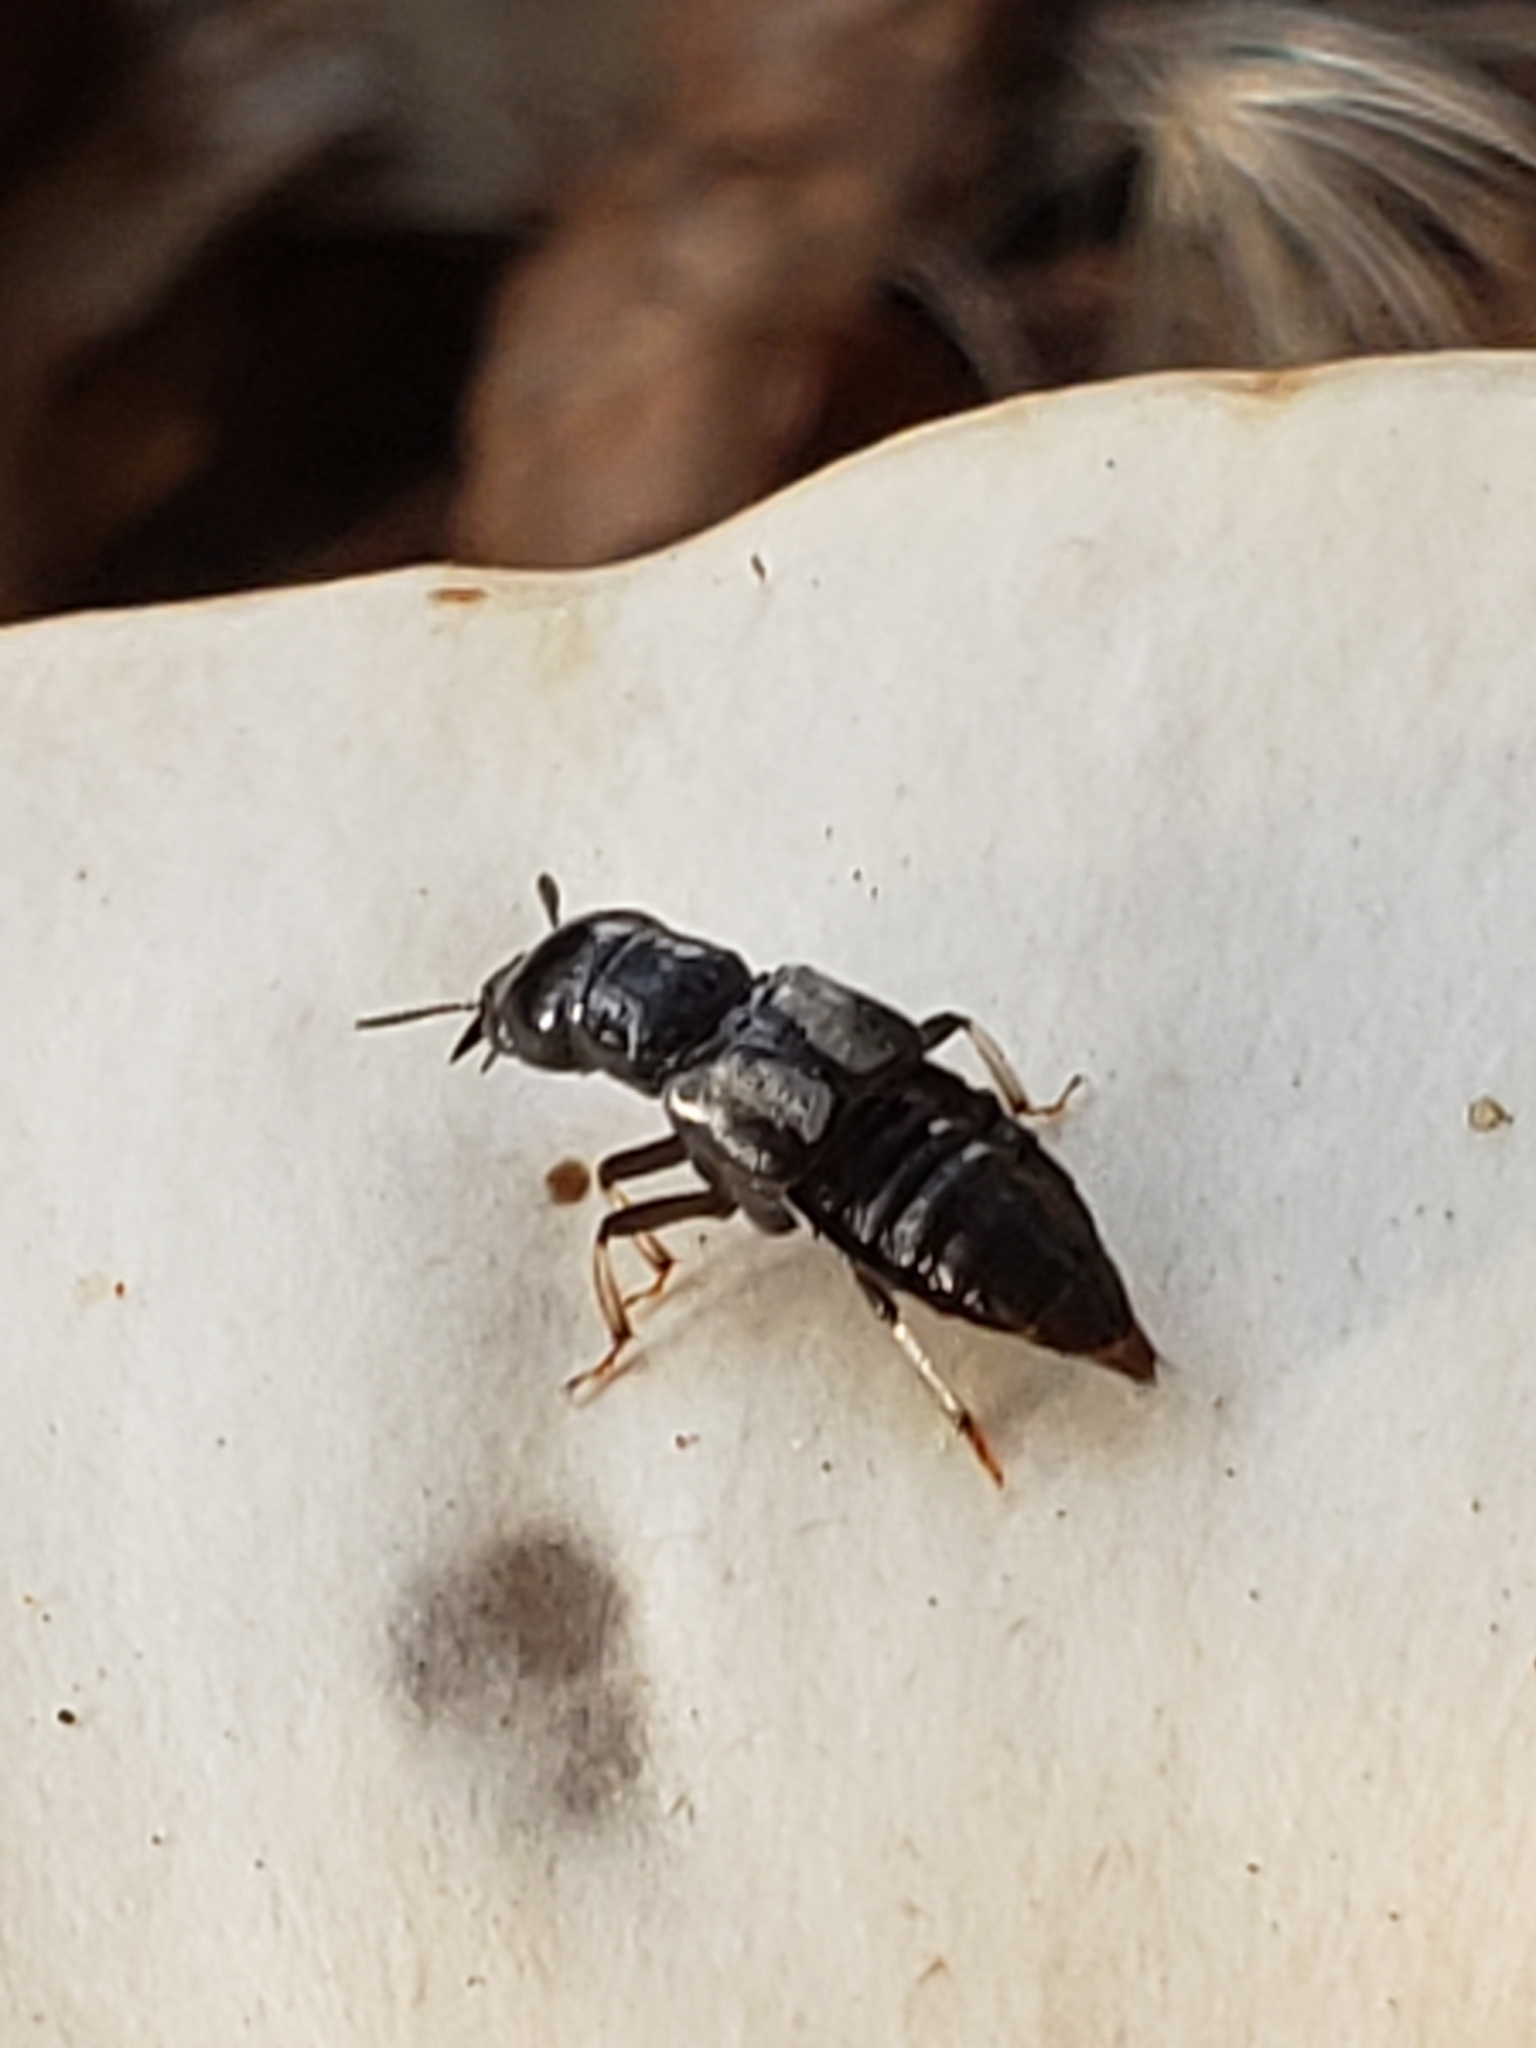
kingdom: Animalia
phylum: Arthropoda
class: Insecta
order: Coleoptera
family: Staphylinidae
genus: Oxyporus
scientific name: Oxyporus femoralis
